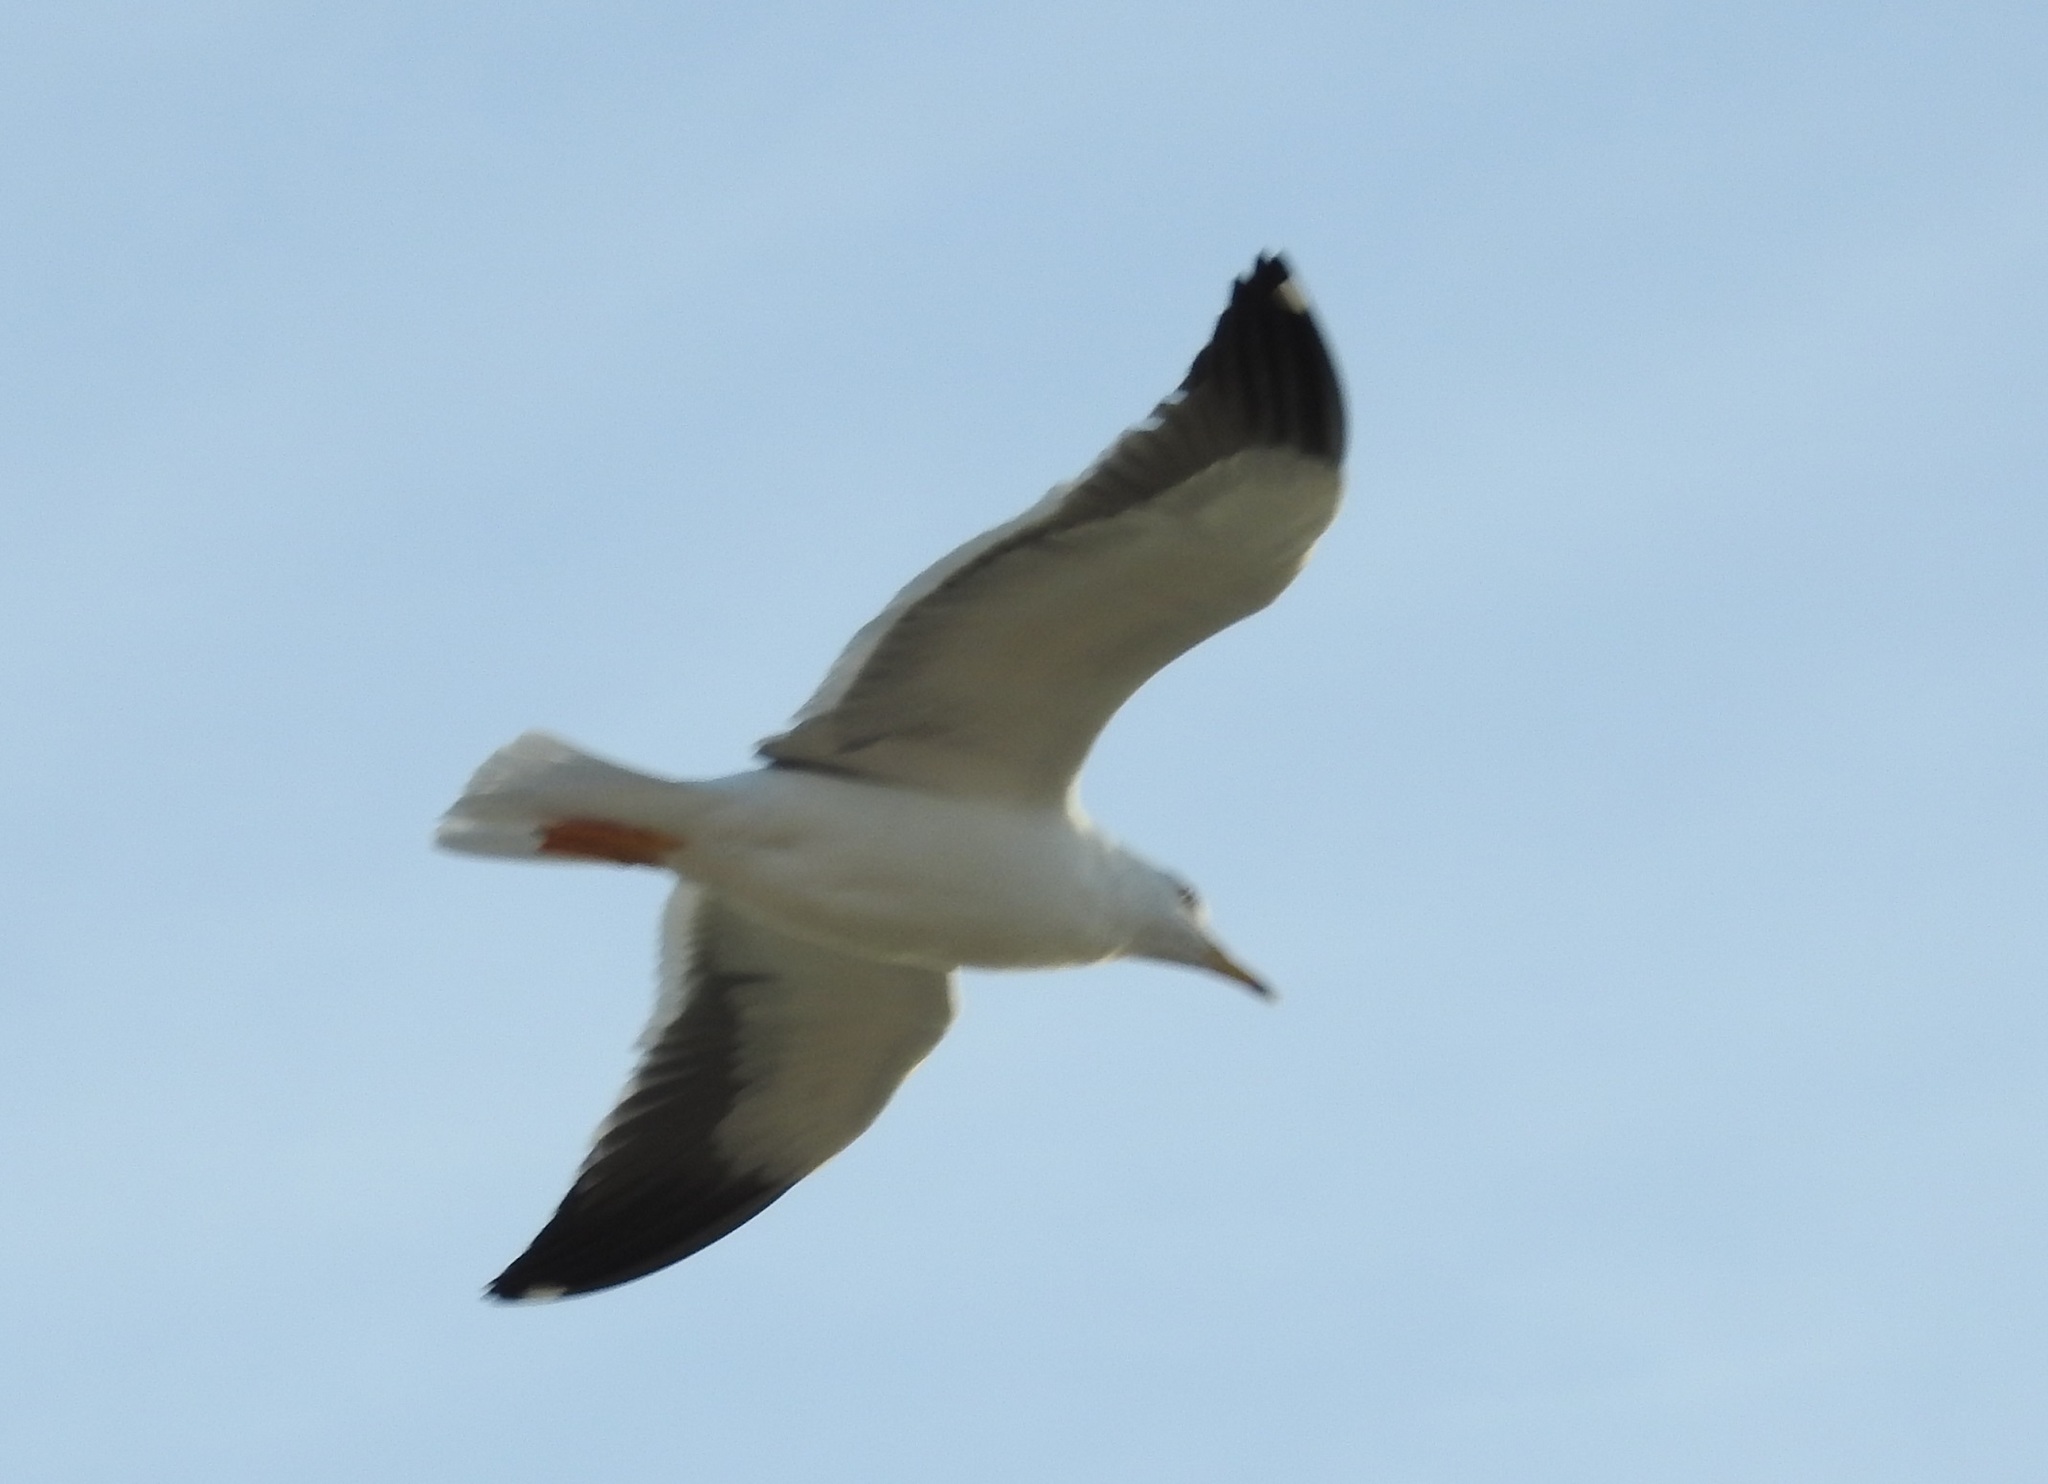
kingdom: Animalia
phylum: Chordata
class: Aves
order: Charadriiformes
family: Laridae
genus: Larus
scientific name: Larus fuscus
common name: Lesser black-backed gull
